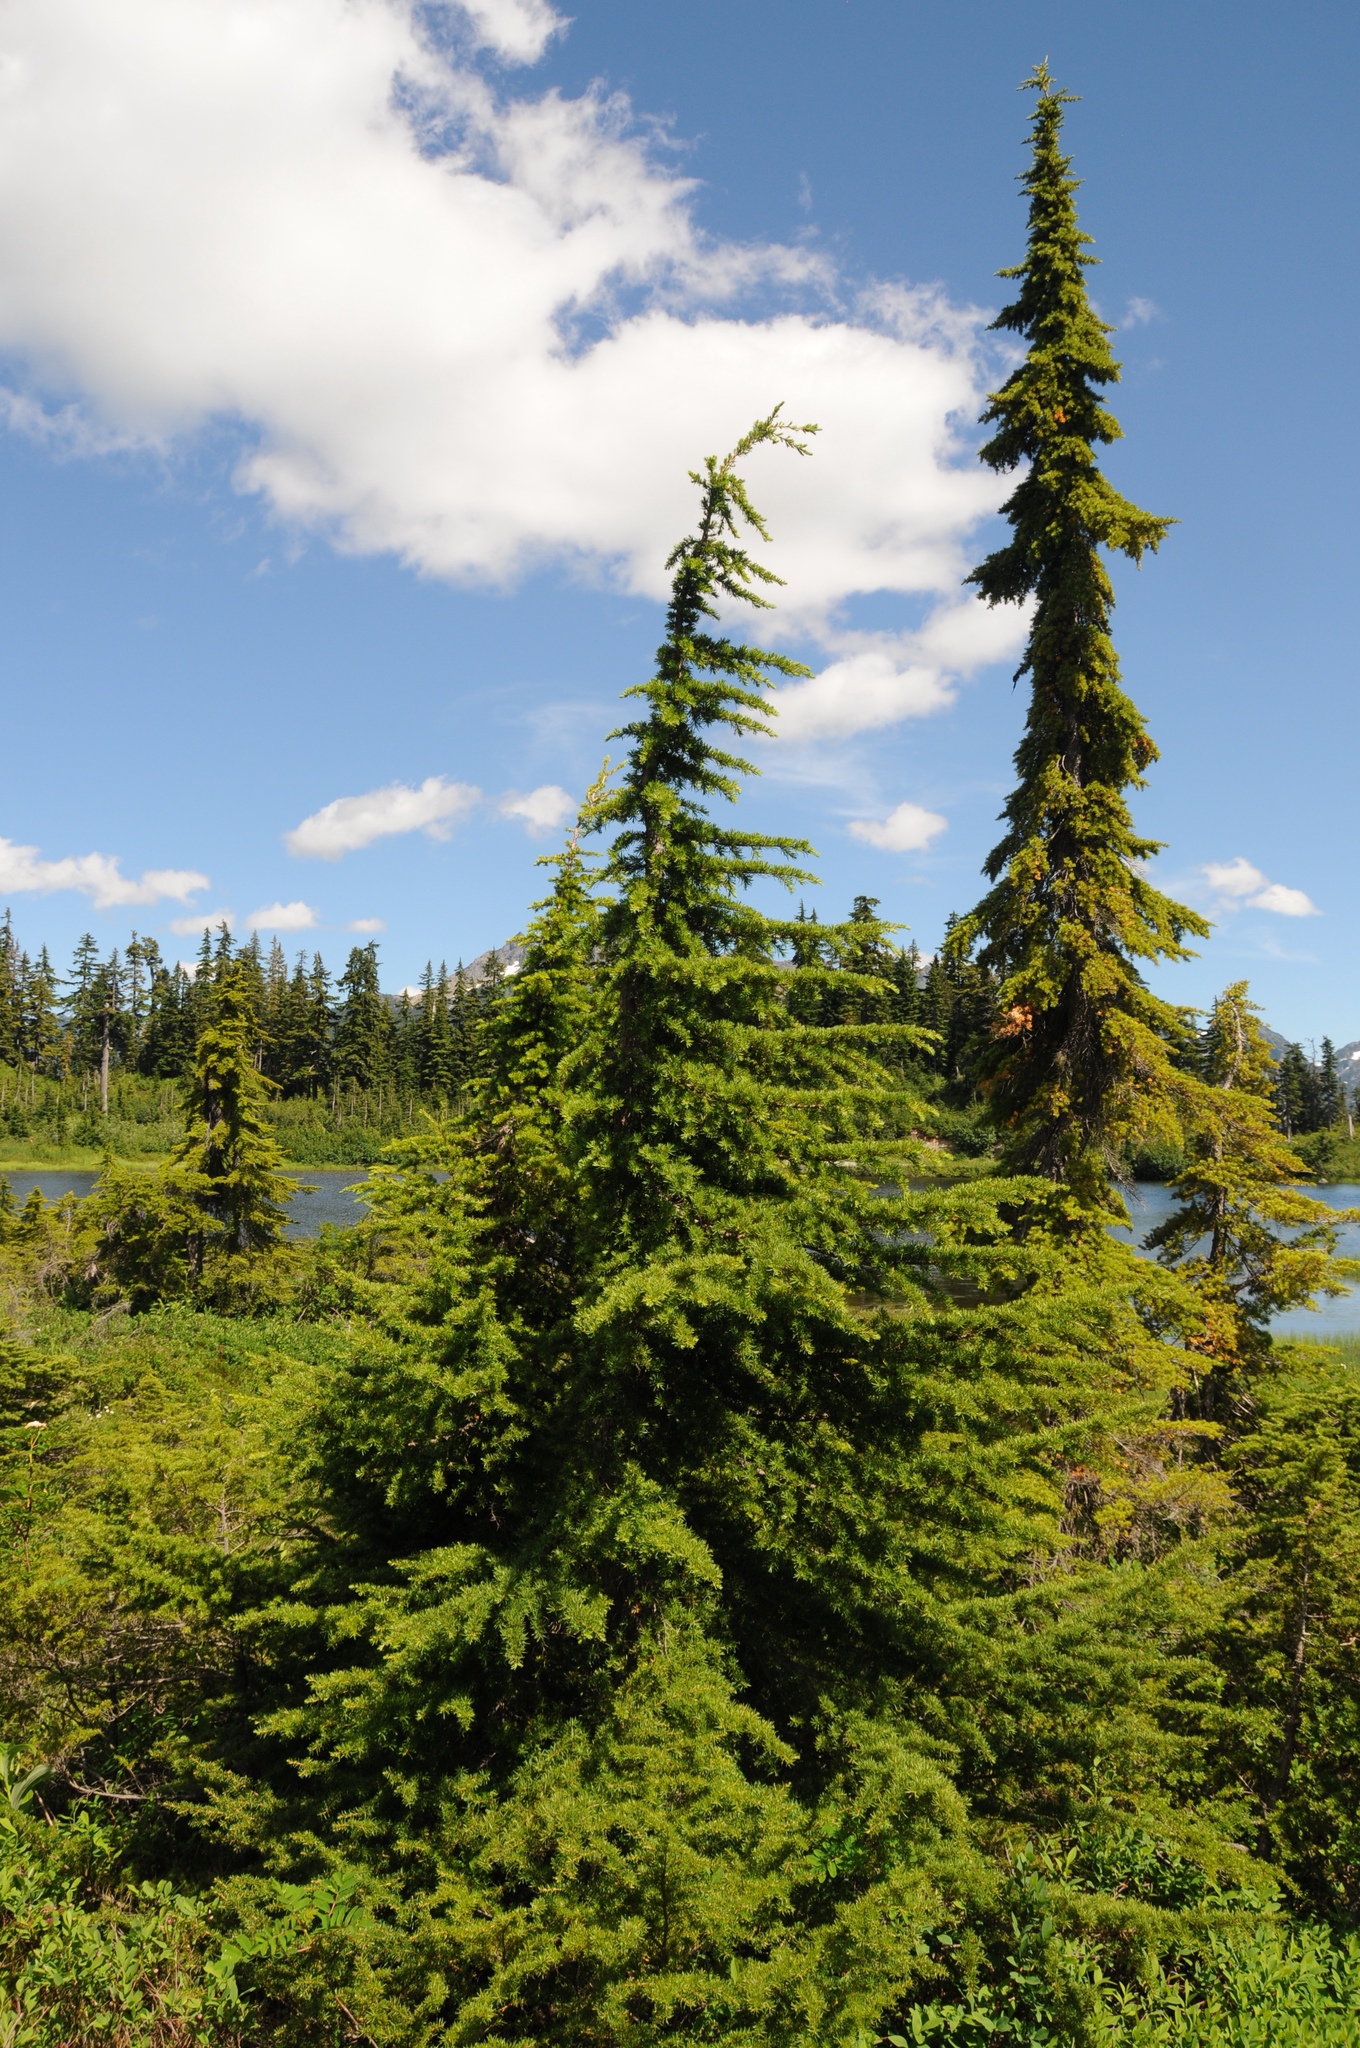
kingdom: Plantae
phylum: Tracheophyta
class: Pinopsida
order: Pinales
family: Pinaceae
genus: Tsuga
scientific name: Tsuga mertensiana
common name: Mountain hemlock
